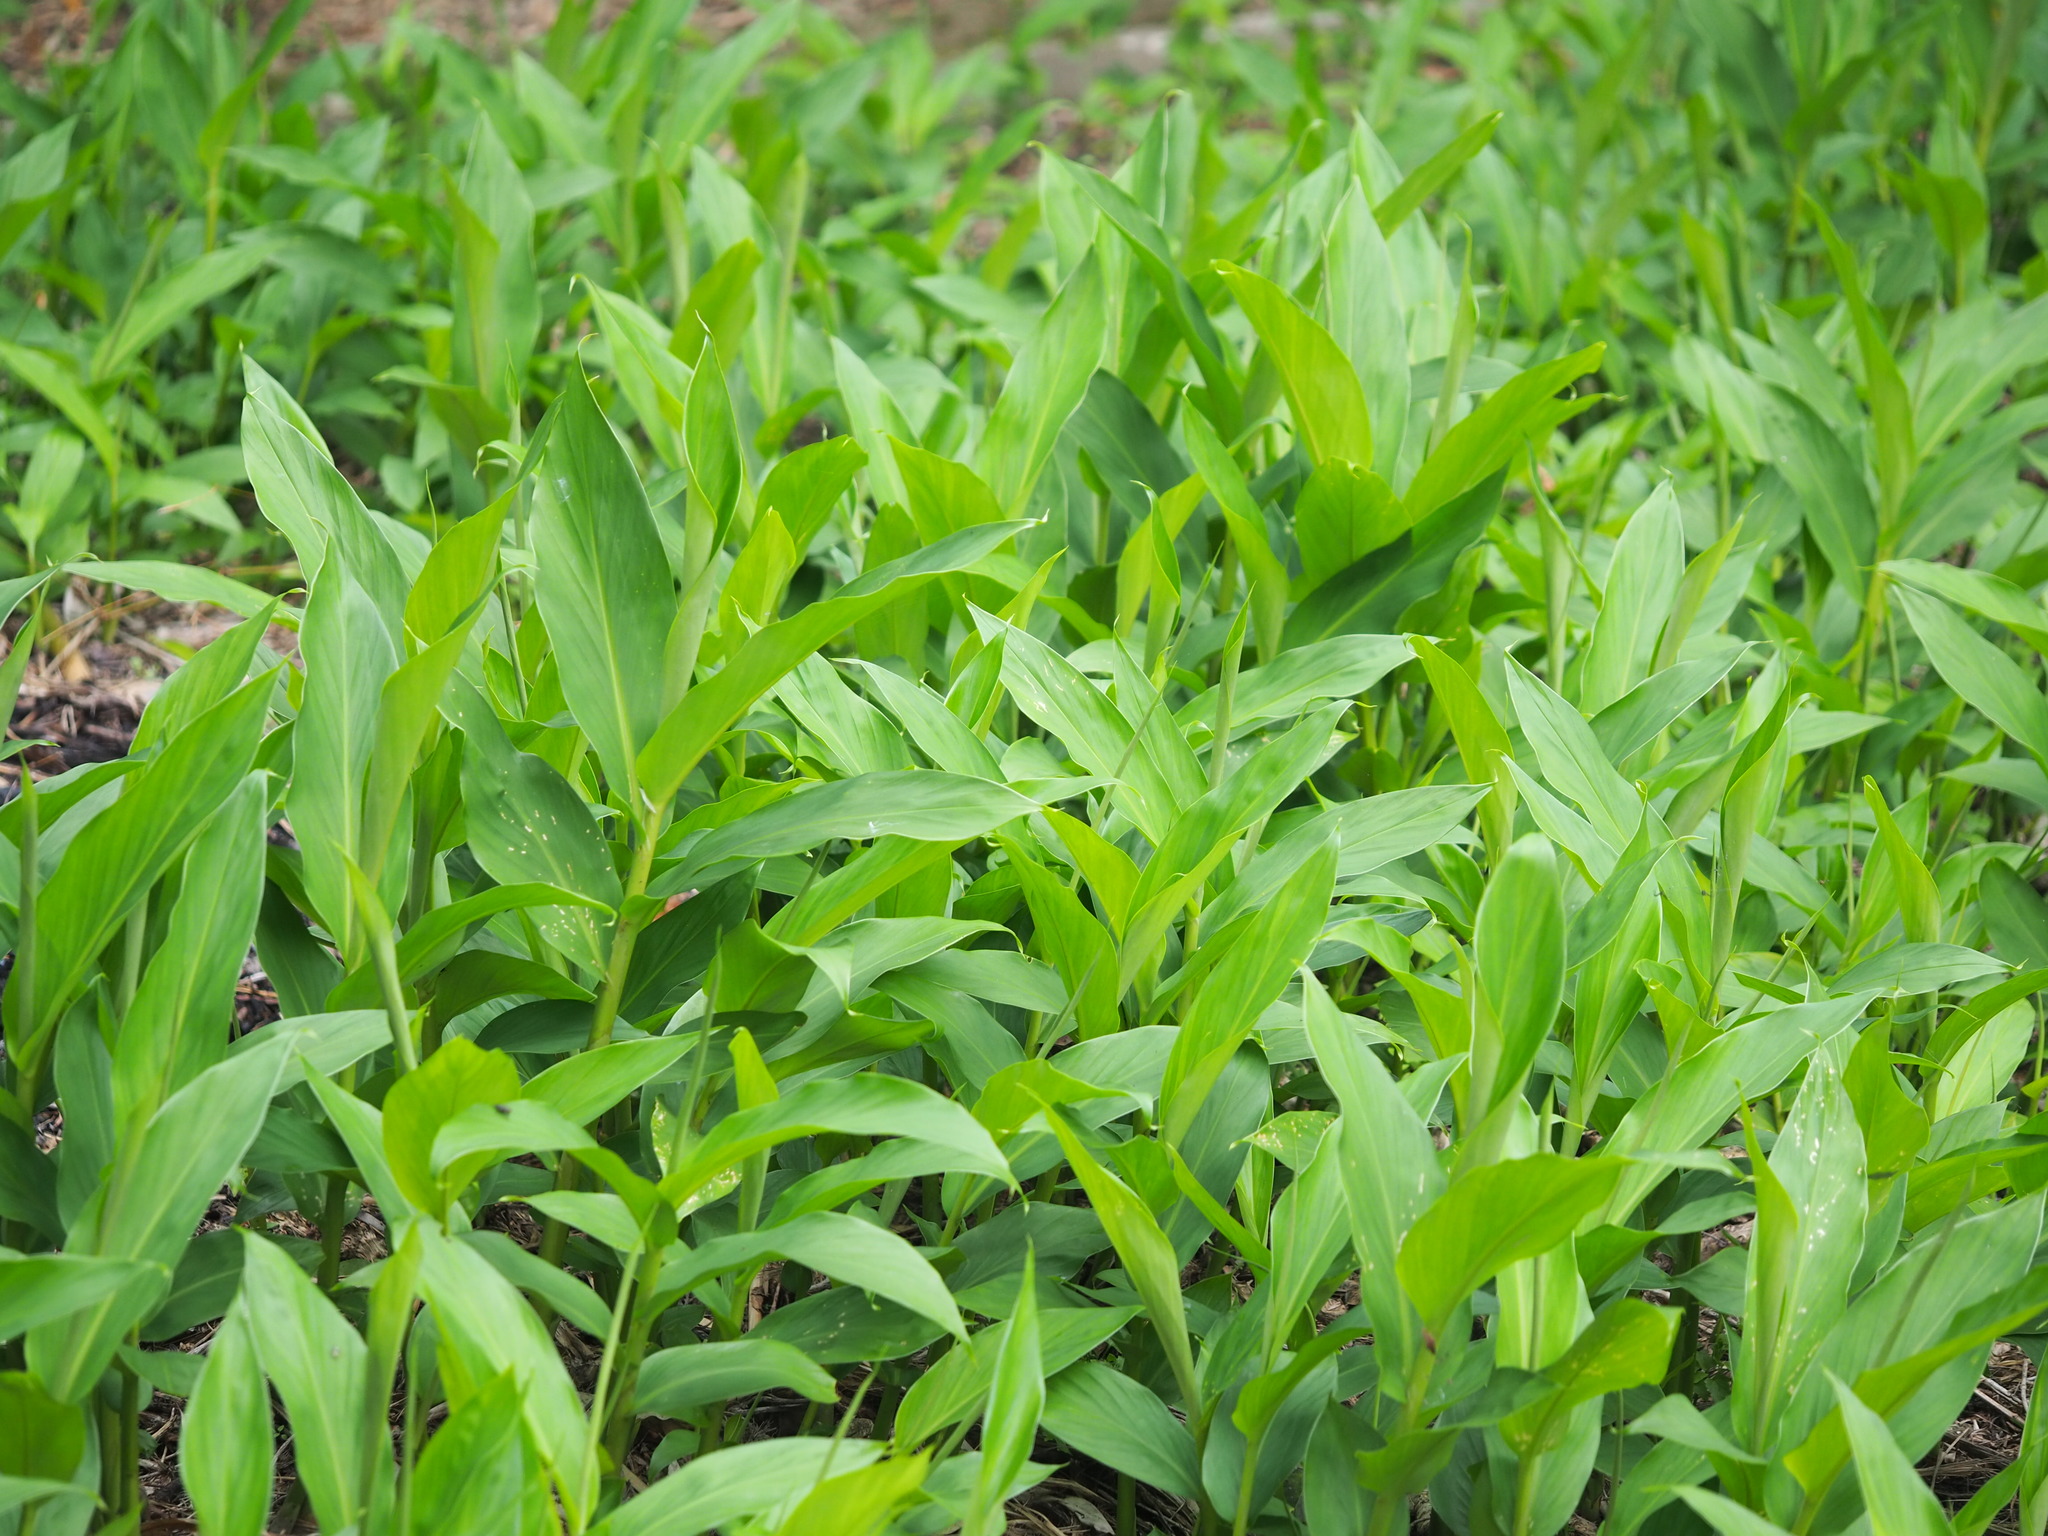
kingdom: Plantae
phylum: Tracheophyta
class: Liliopsida
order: Zingiberales
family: Zingiberaceae
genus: Hedychium
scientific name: Hedychium coronarium
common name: White garland-lily
